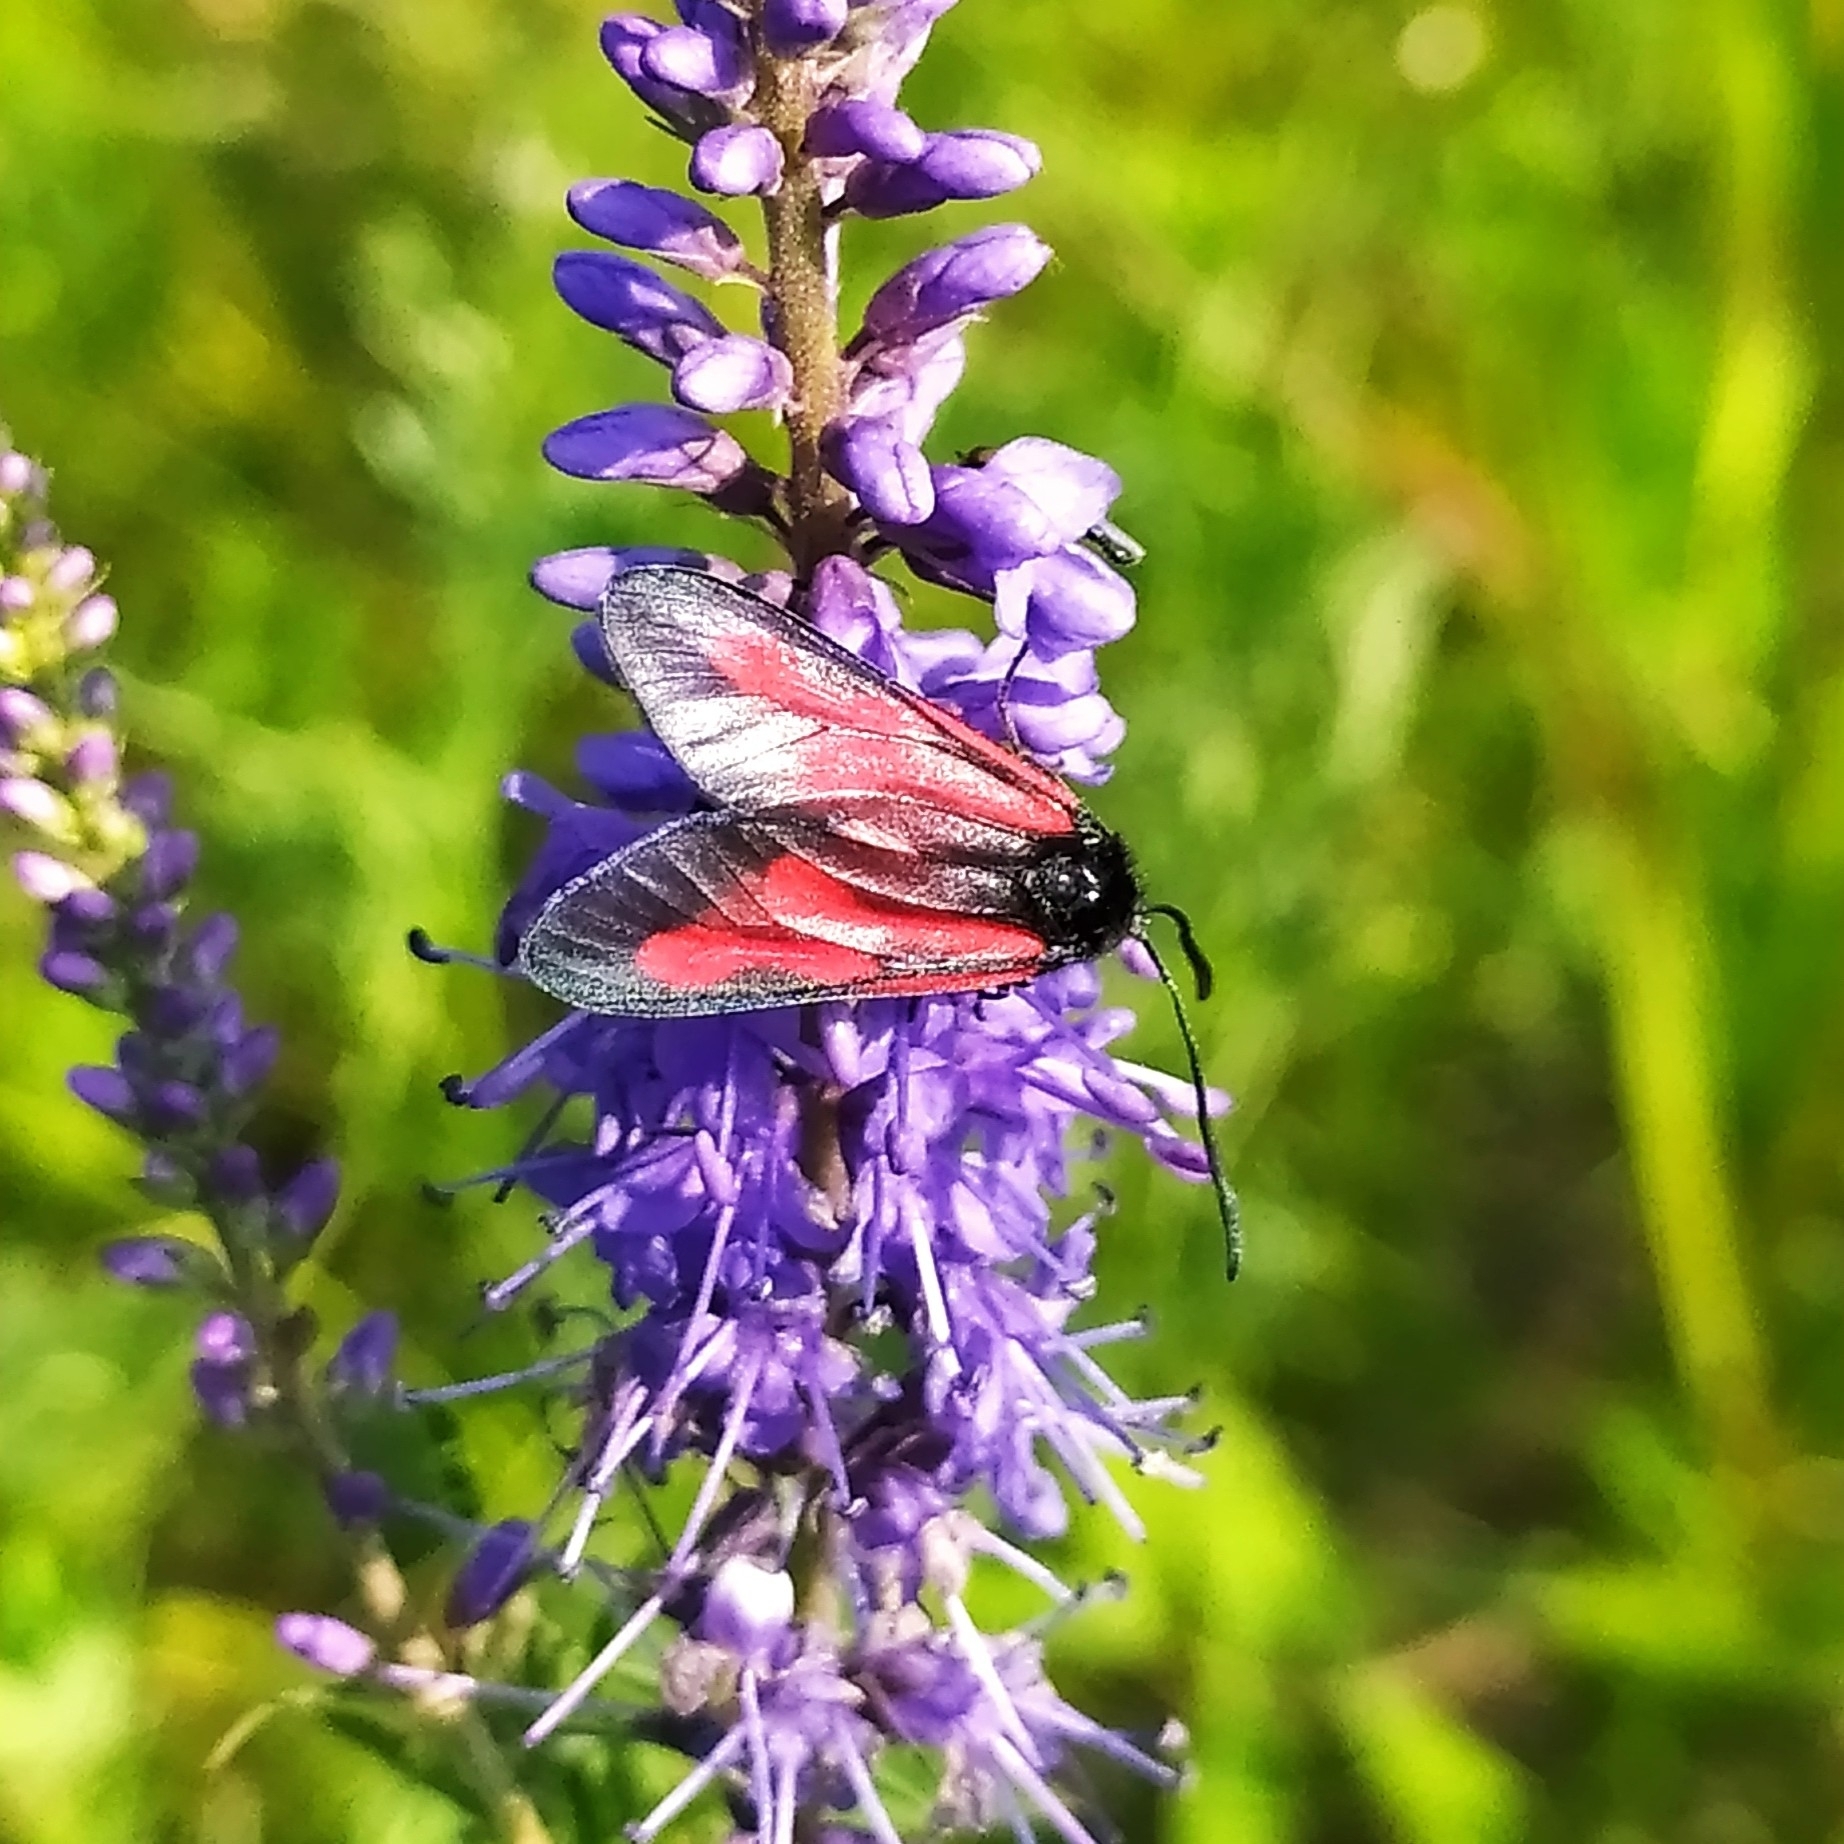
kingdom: Animalia
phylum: Arthropoda
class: Insecta
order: Lepidoptera
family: Zygaenidae
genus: Zygaena
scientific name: Zygaena osterodensis
